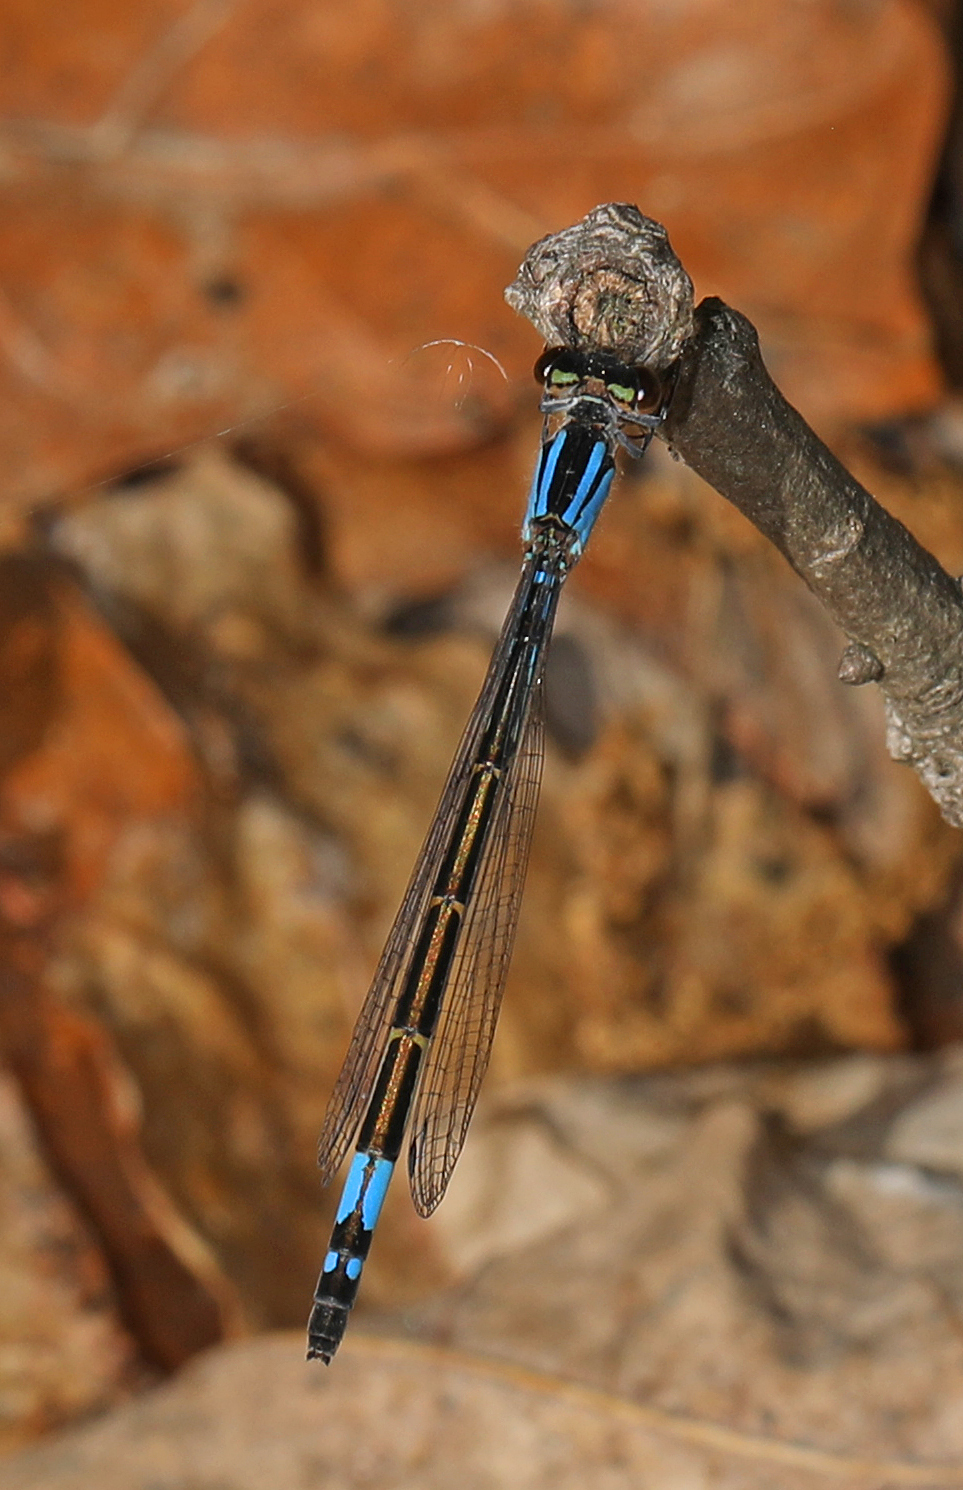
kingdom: Animalia
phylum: Arthropoda
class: Insecta
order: Odonata
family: Coenagrionidae
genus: Enallagma
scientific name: Enallagma aspersum
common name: Azure bluet
